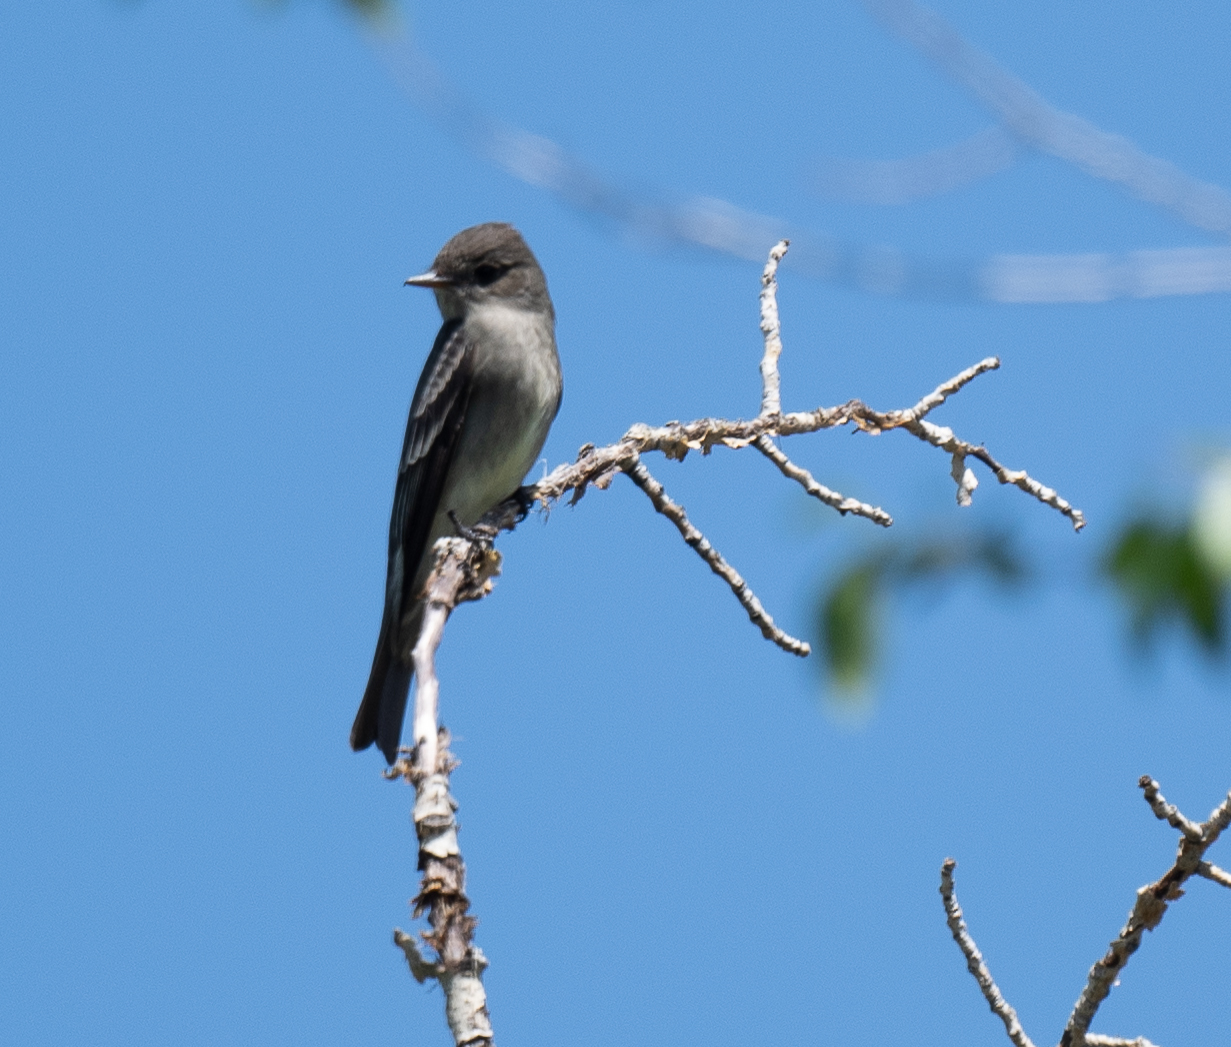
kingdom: Animalia
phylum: Chordata
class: Aves
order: Passeriformes
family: Tyrannidae
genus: Contopus
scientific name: Contopus sordidulus
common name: Western wood-pewee
